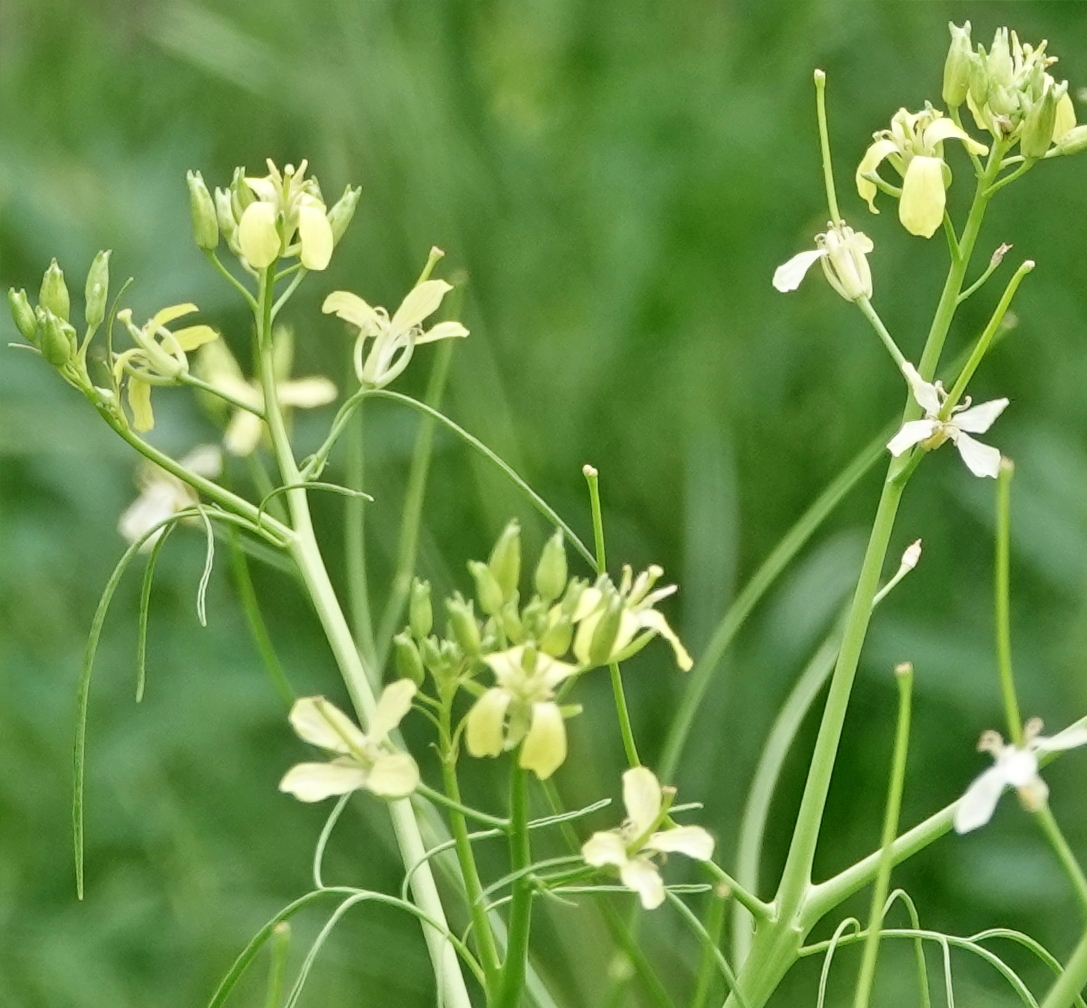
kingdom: Plantae
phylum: Tracheophyta
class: Magnoliopsida
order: Brassicales
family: Brassicaceae
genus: Sisymbrium
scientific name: Sisymbrium altissimum
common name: Tall rocket
